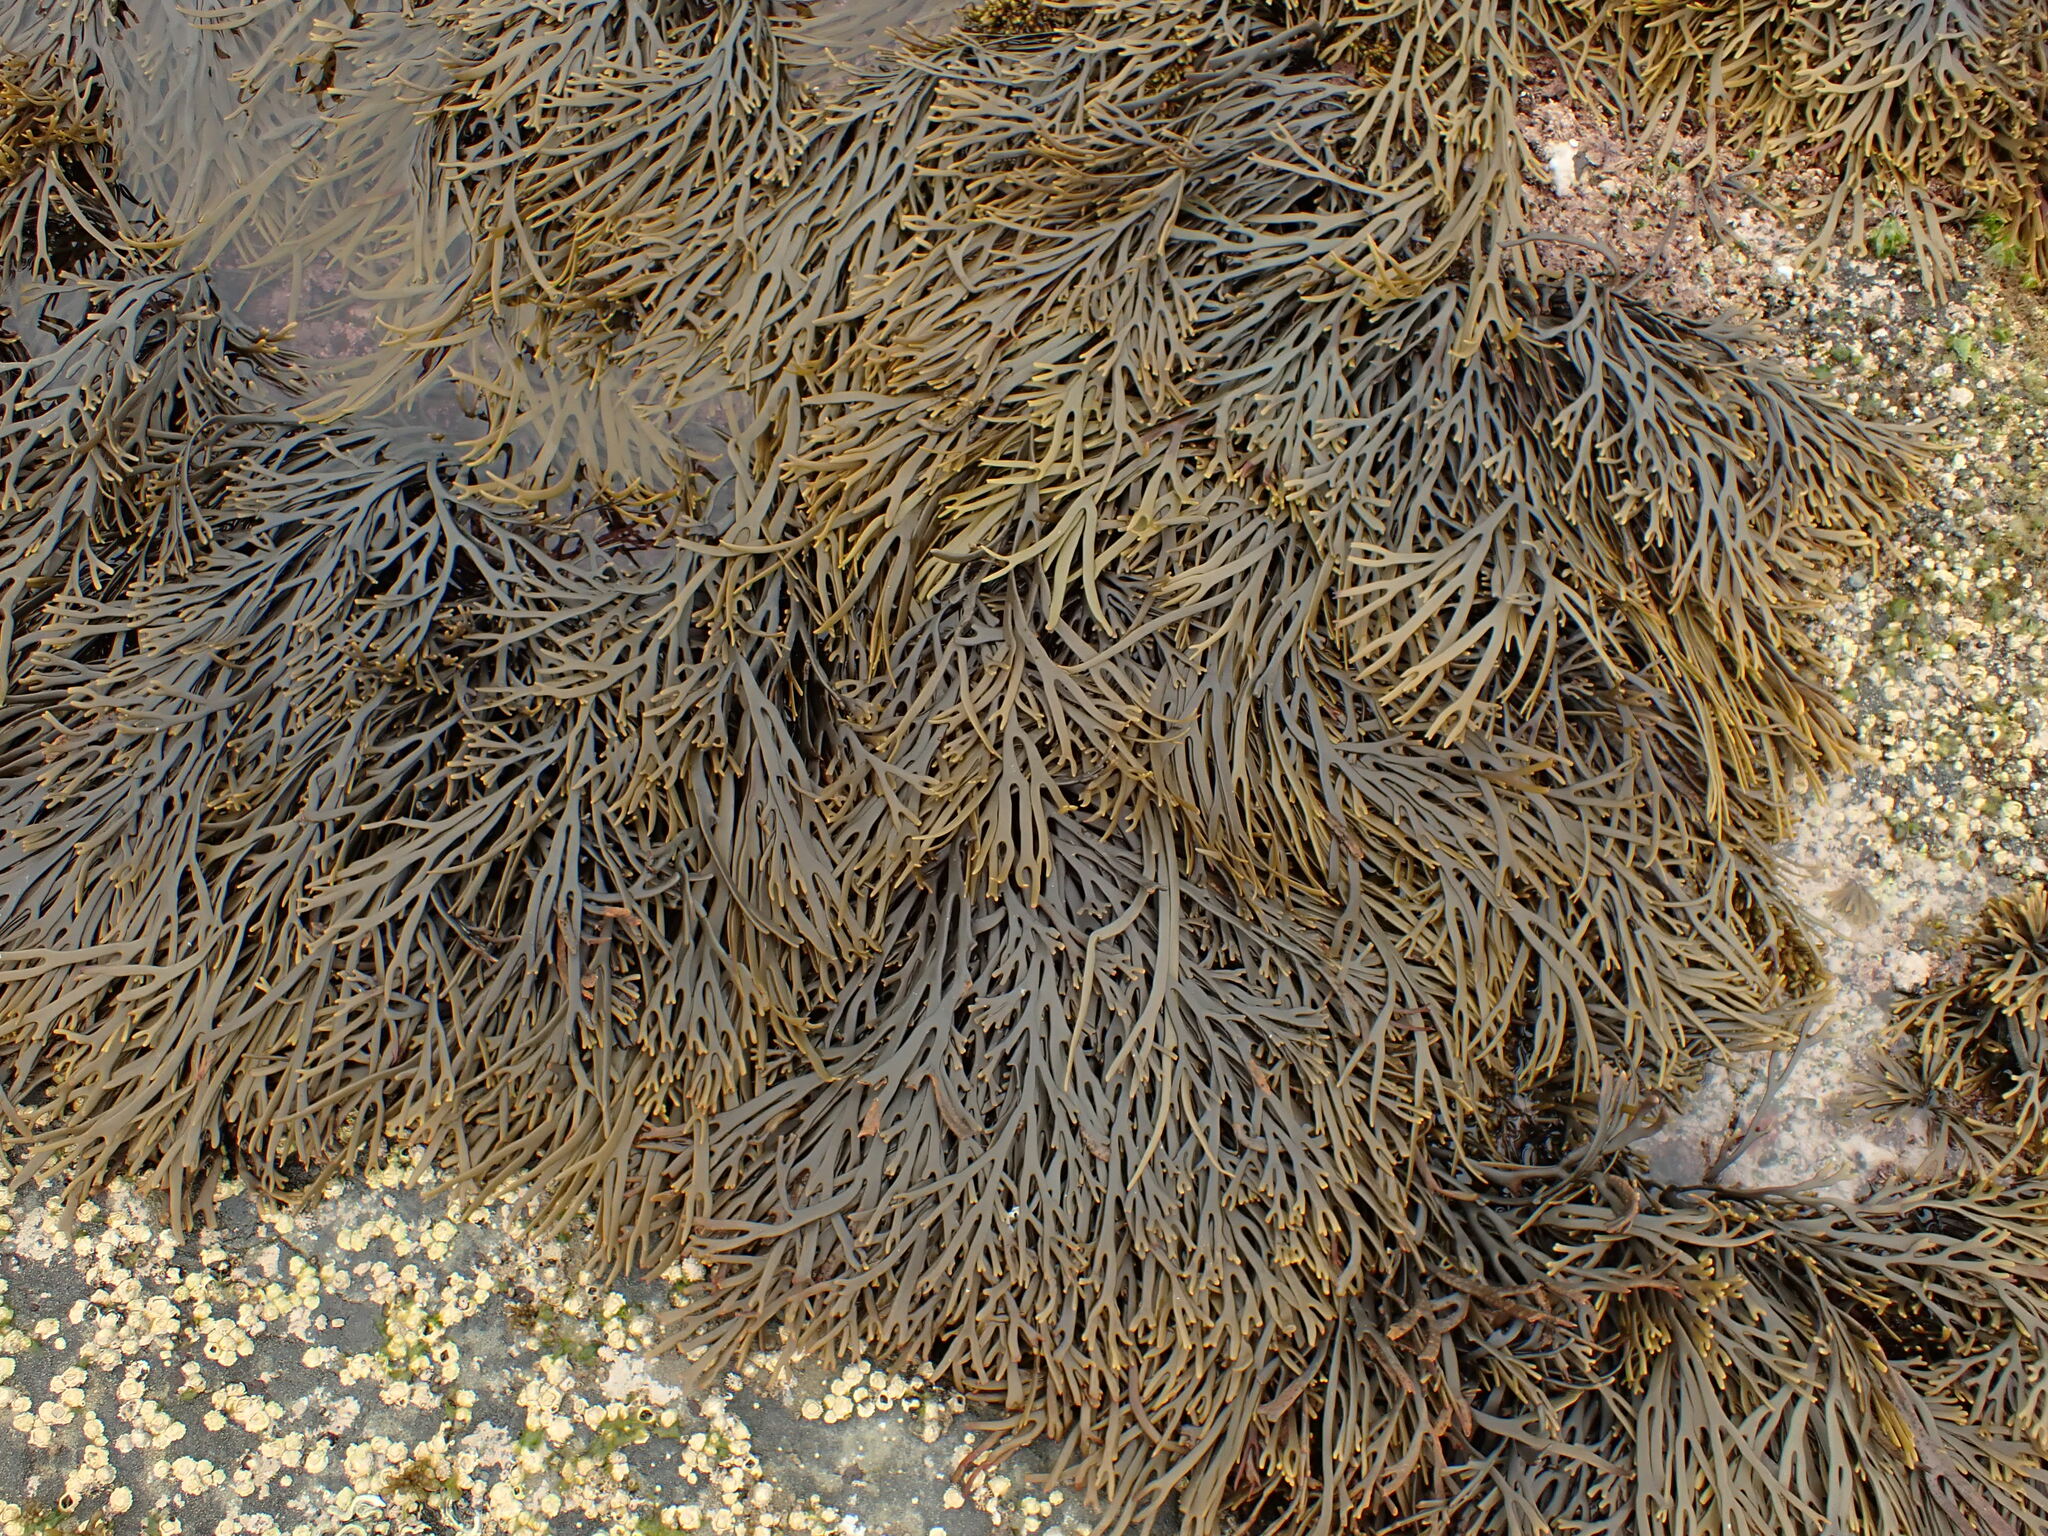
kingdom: Chromista
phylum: Ochrophyta
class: Phaeophyceae
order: Fucales
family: Xiphophoraceae
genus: Xiphophora
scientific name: Xiphophora gladiata
